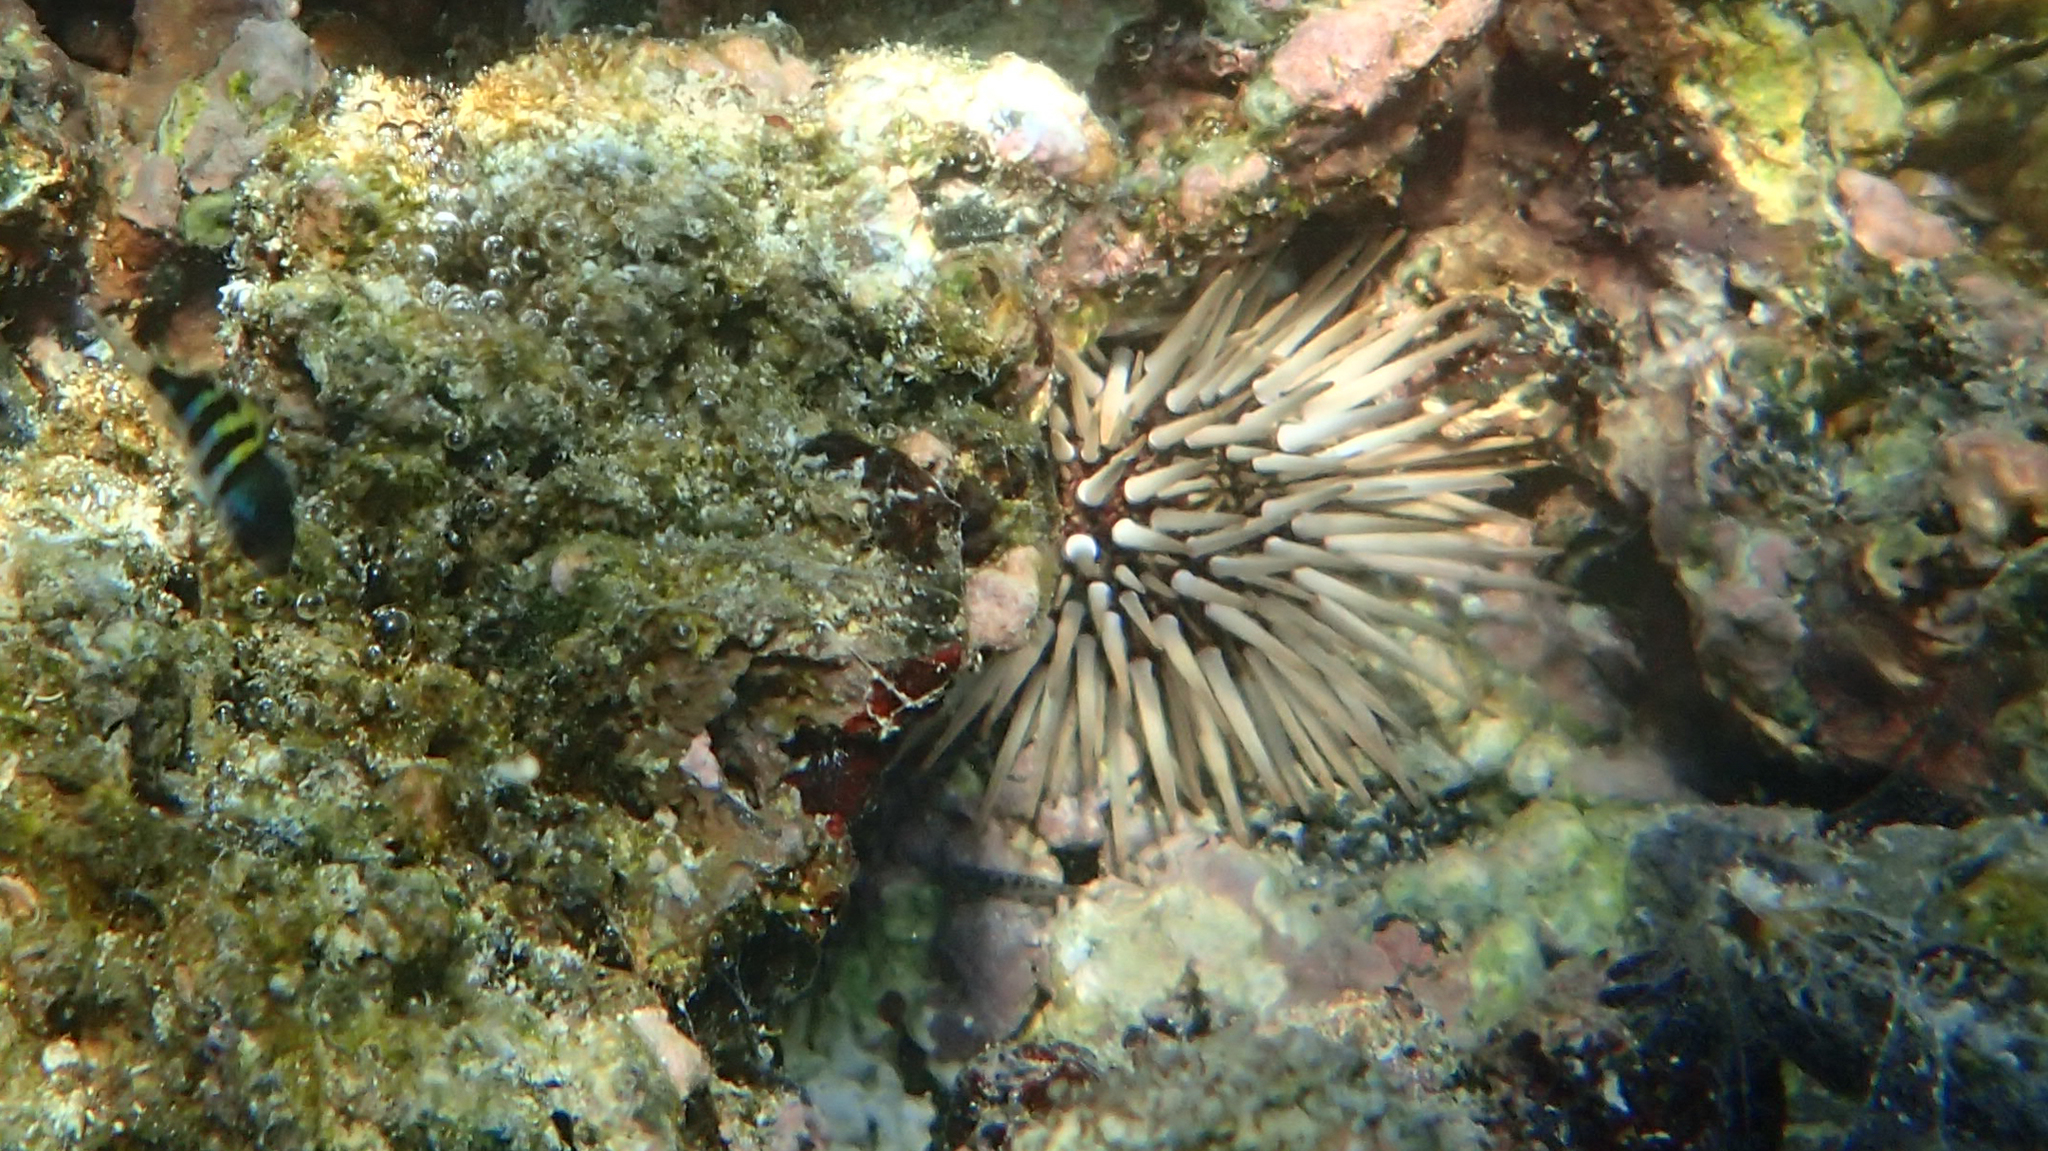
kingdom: Animalia
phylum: Echinodermata
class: Echinoidea
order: Camarodonta
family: Echinometridae
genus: Echinometra
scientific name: Echinometra mathaei
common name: Rock-boring urchin
